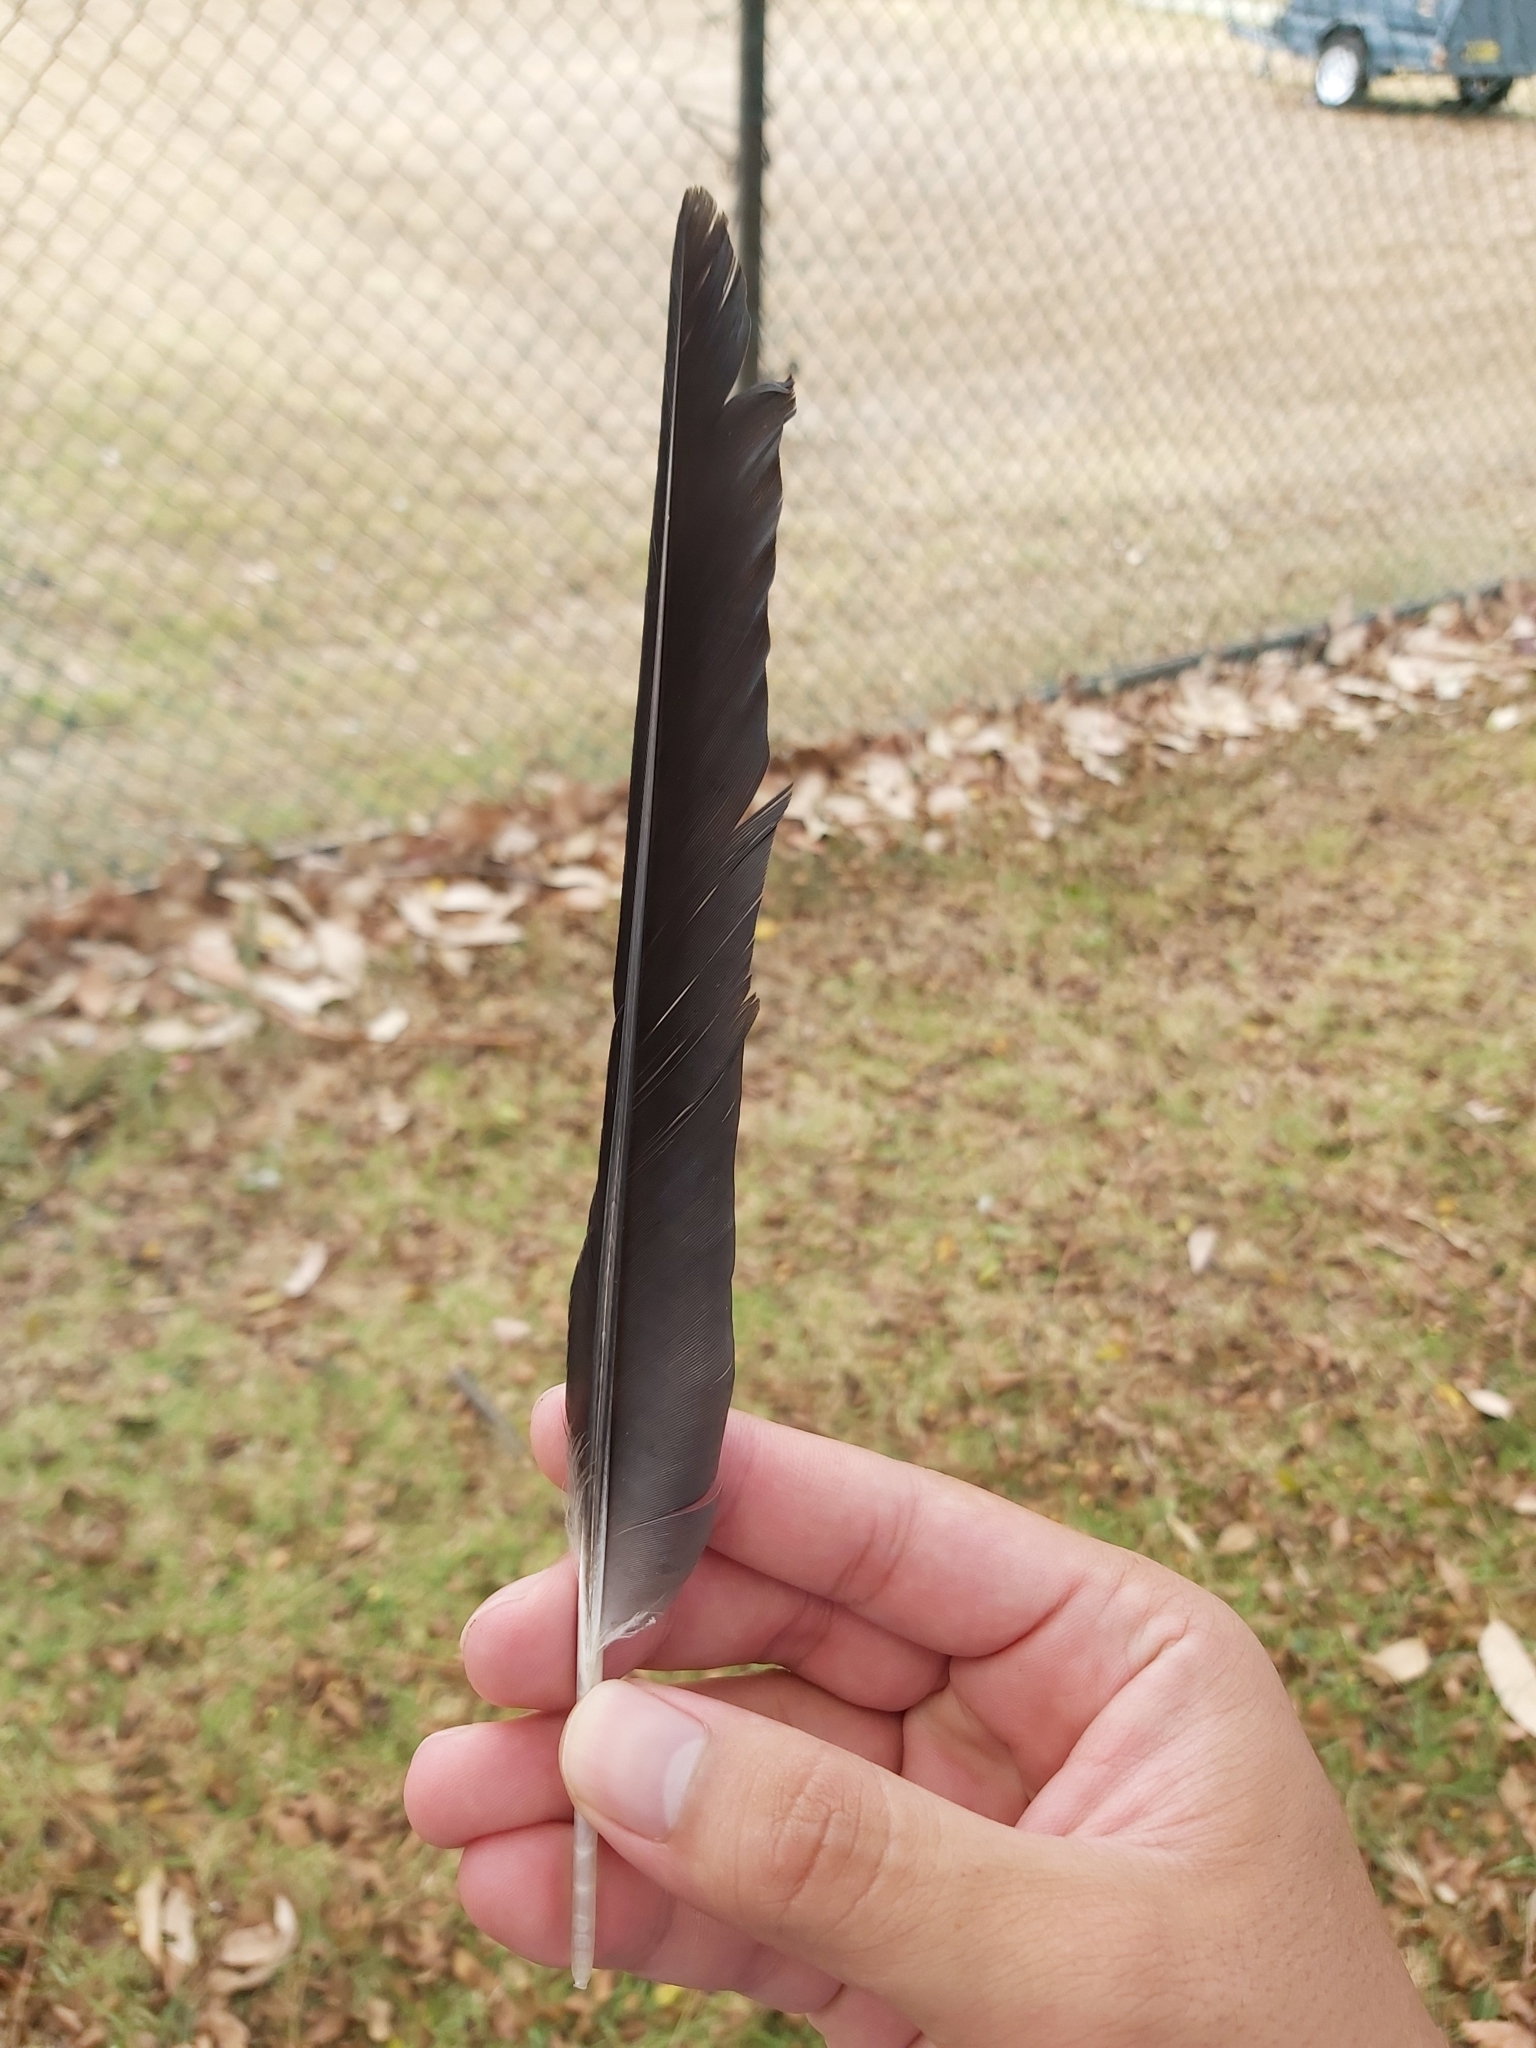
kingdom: Animalia
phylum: Chordata
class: Aves
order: Passeriformes
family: Cracticidae
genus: Gymnorhina
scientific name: Gymnorhina tibicen
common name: Australian magpie
